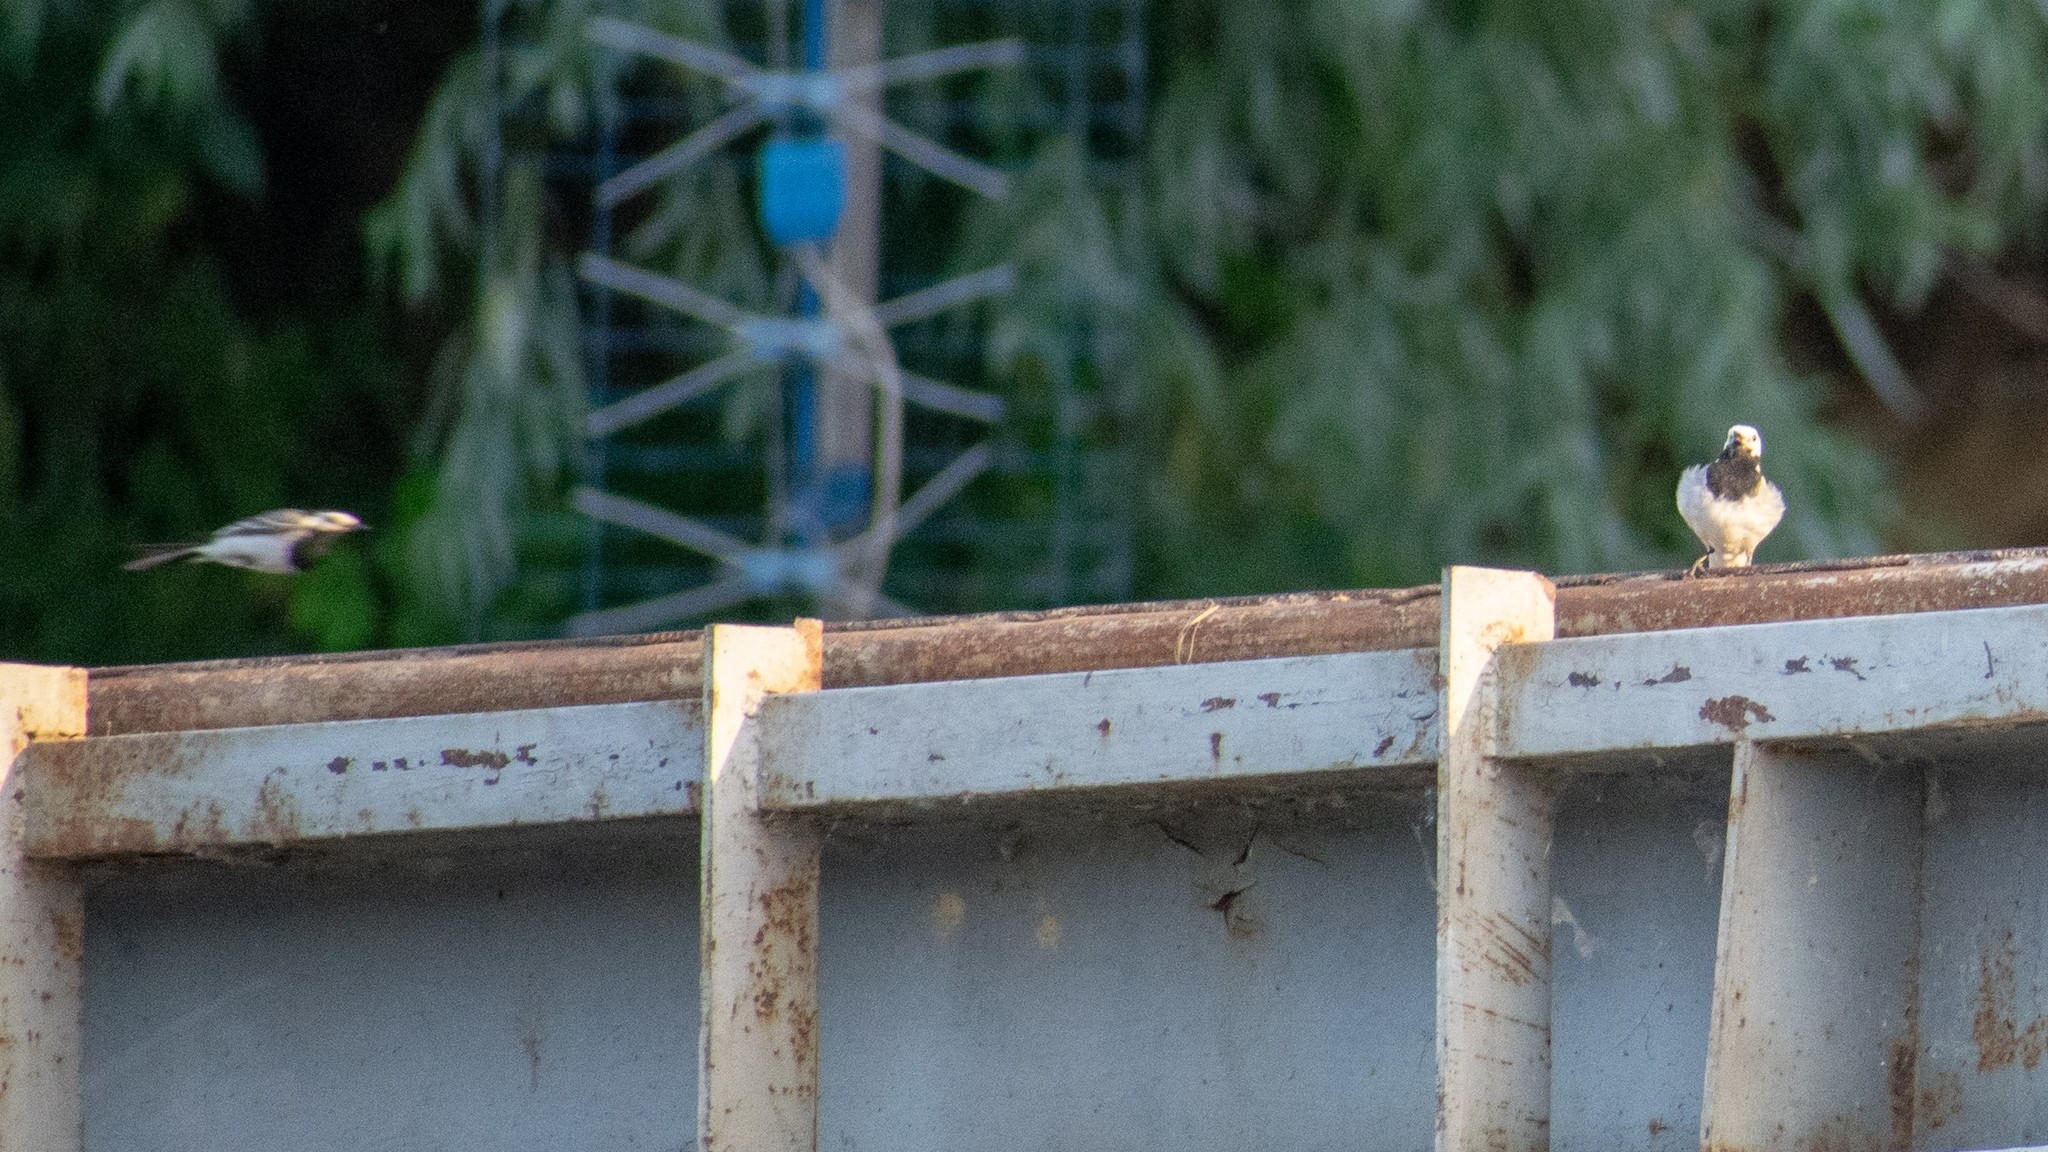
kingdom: Animalia
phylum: Chordata
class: Aves
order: Passeriformes
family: Motacillidae
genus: Motacilla
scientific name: Motacilla alba
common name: White wagtail
